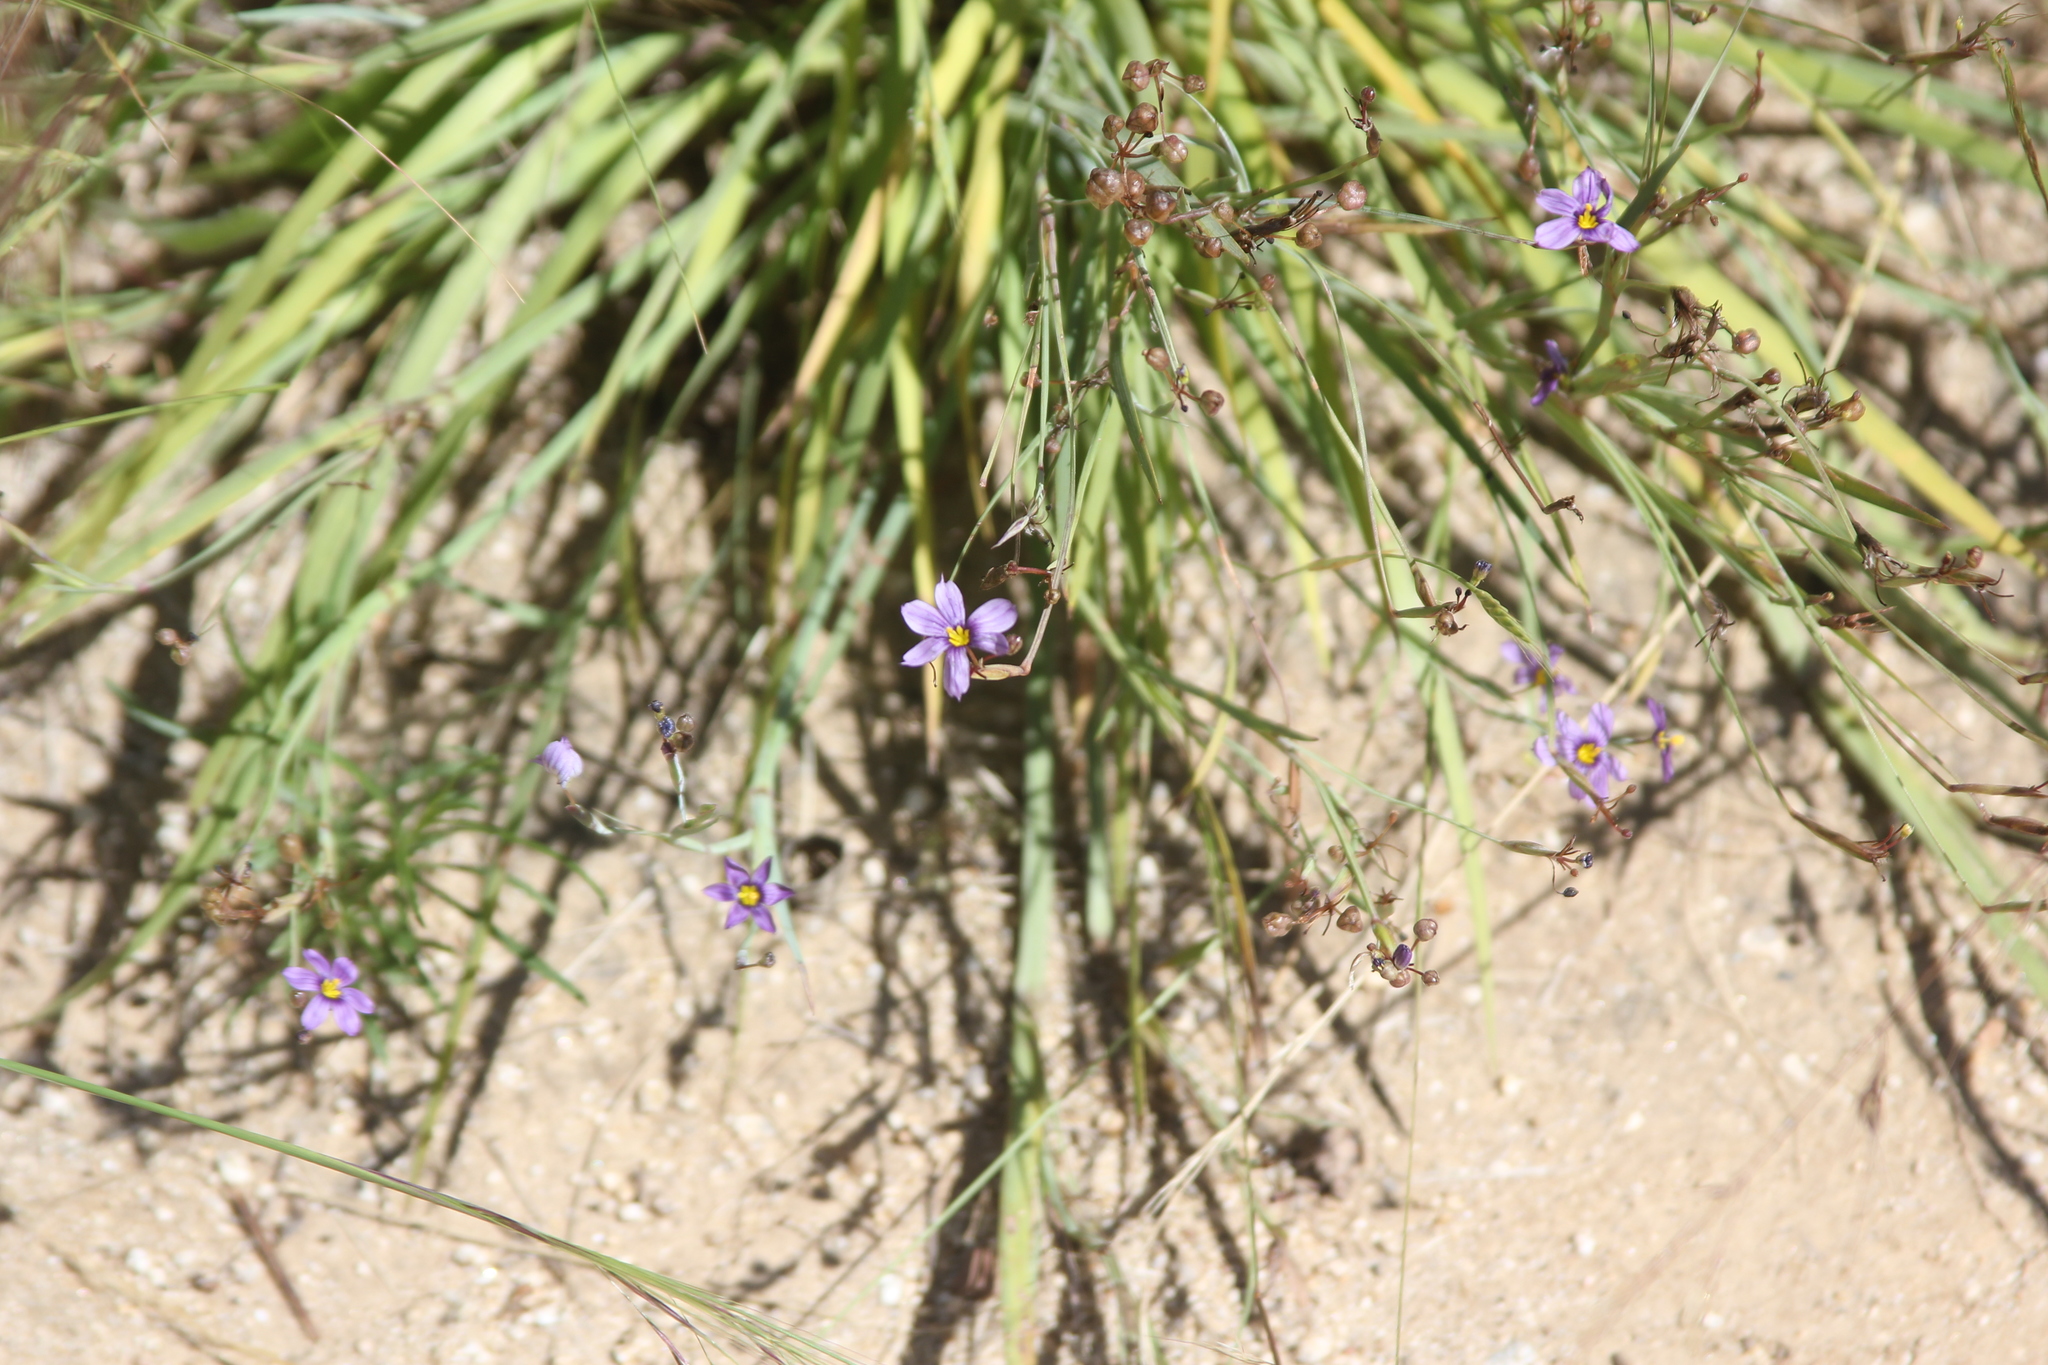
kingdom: Plantae
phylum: Tracheophyta
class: Liliopsida
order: Asparagales
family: Iridaceae
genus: Sisyrinchium
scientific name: Sisyrinchium bellum
